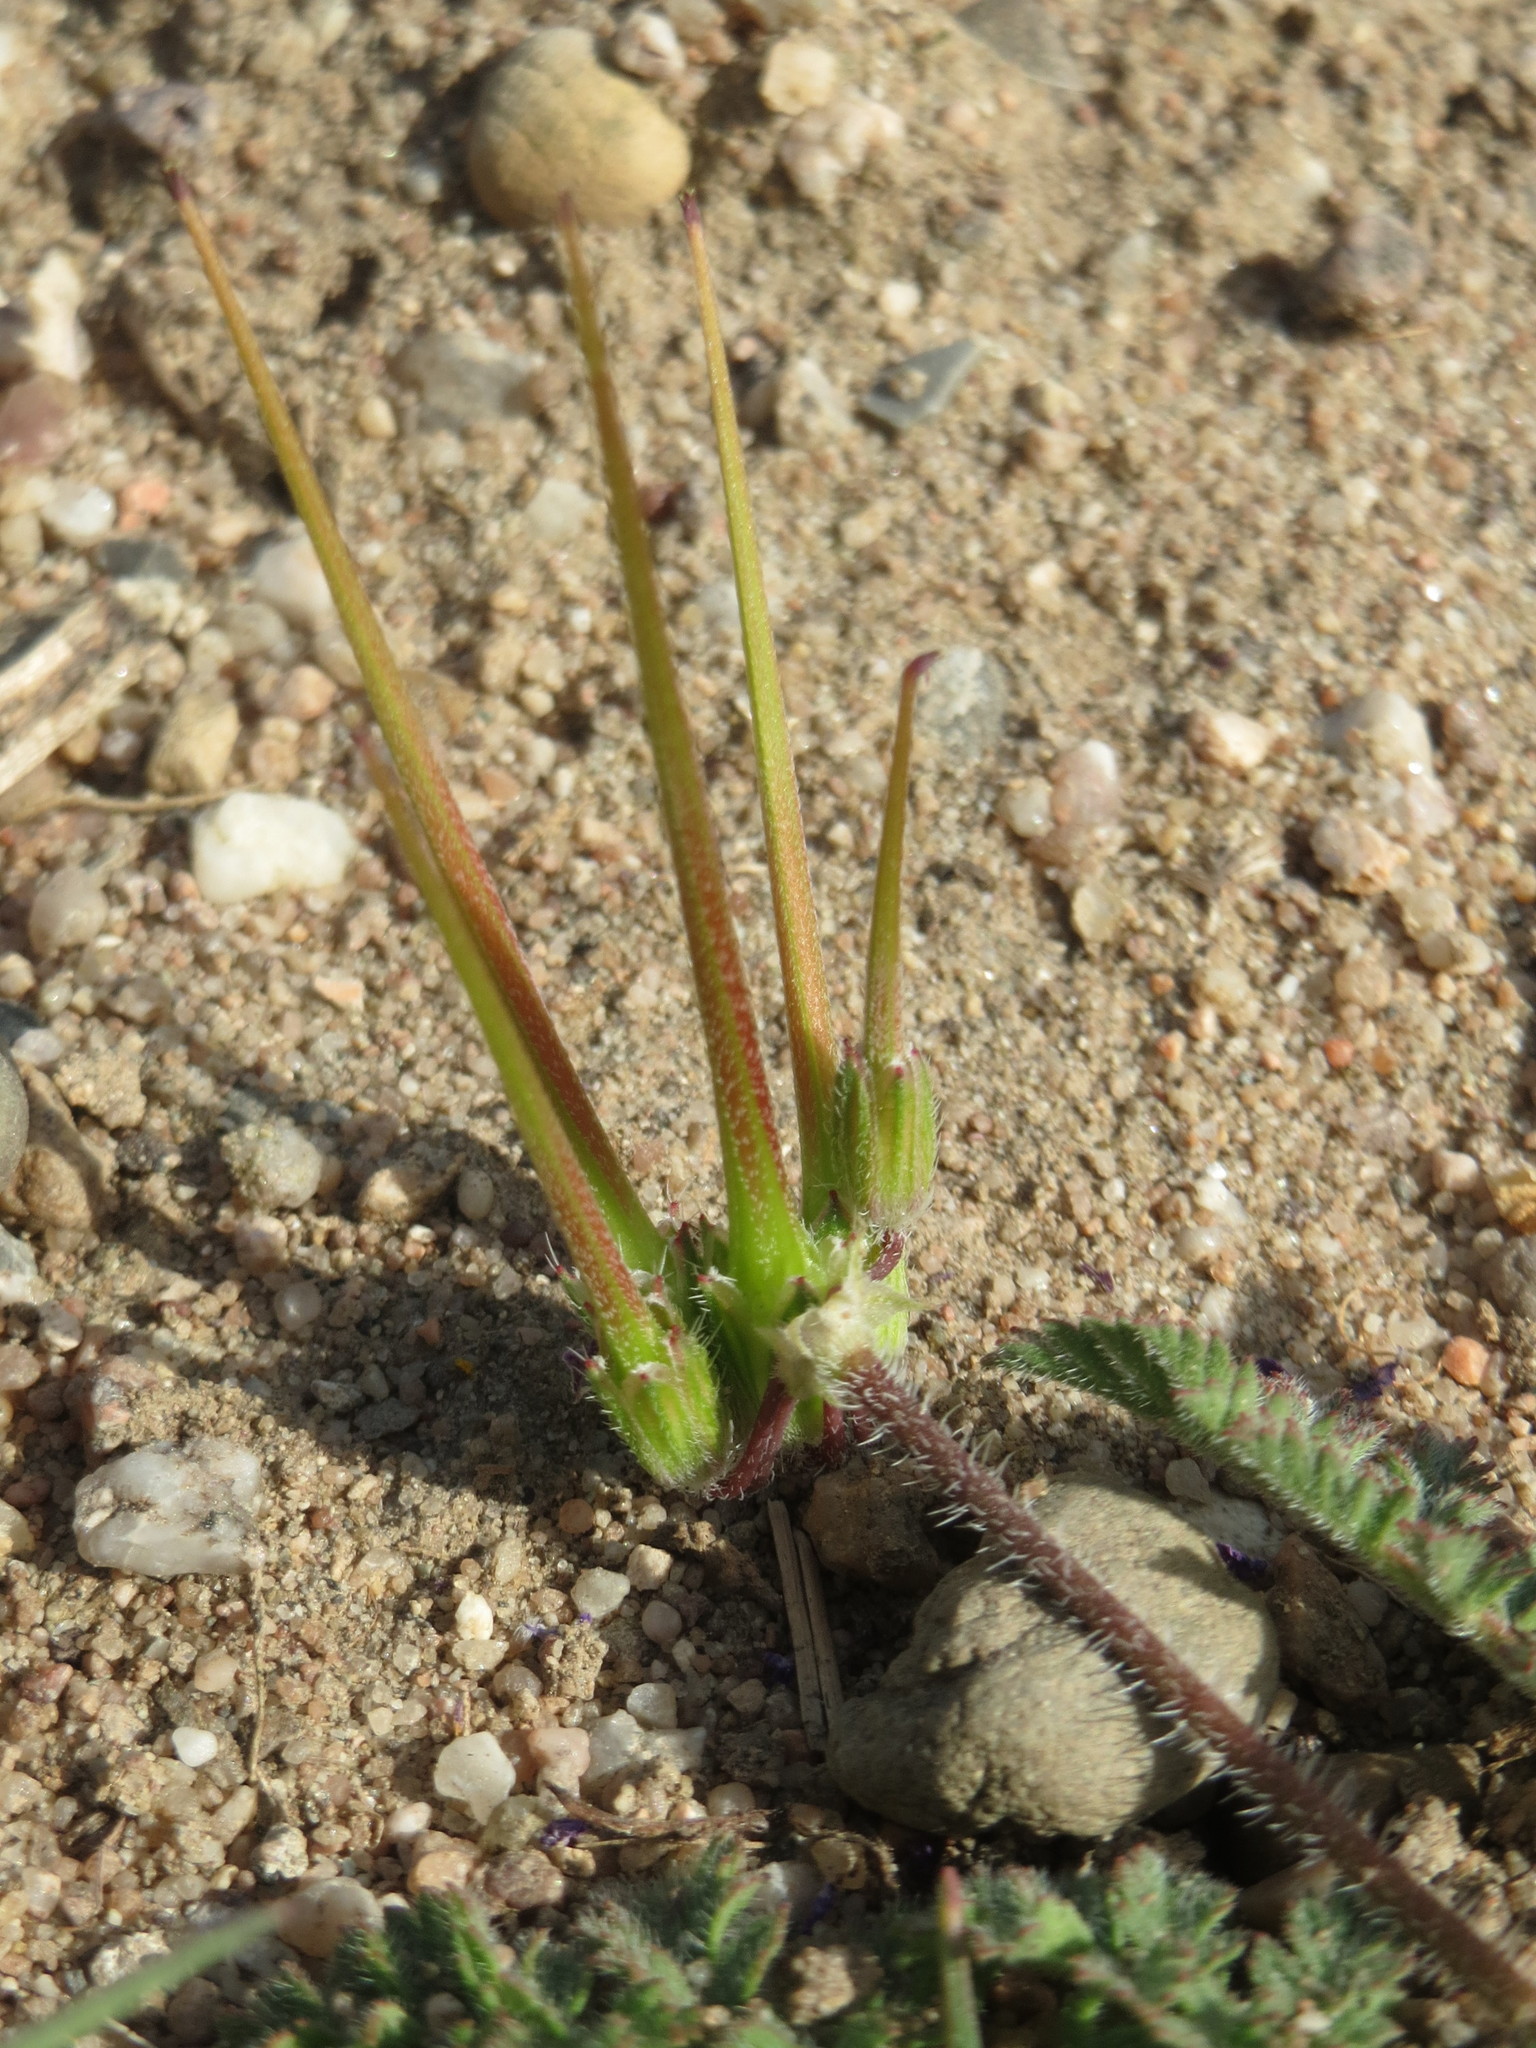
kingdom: Plantae
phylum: Tracheophyta
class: Magnoliopsida
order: Geraniales
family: Geraniaceae
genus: Erodium
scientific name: Erodium cicutarium
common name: Common stork's-bill
